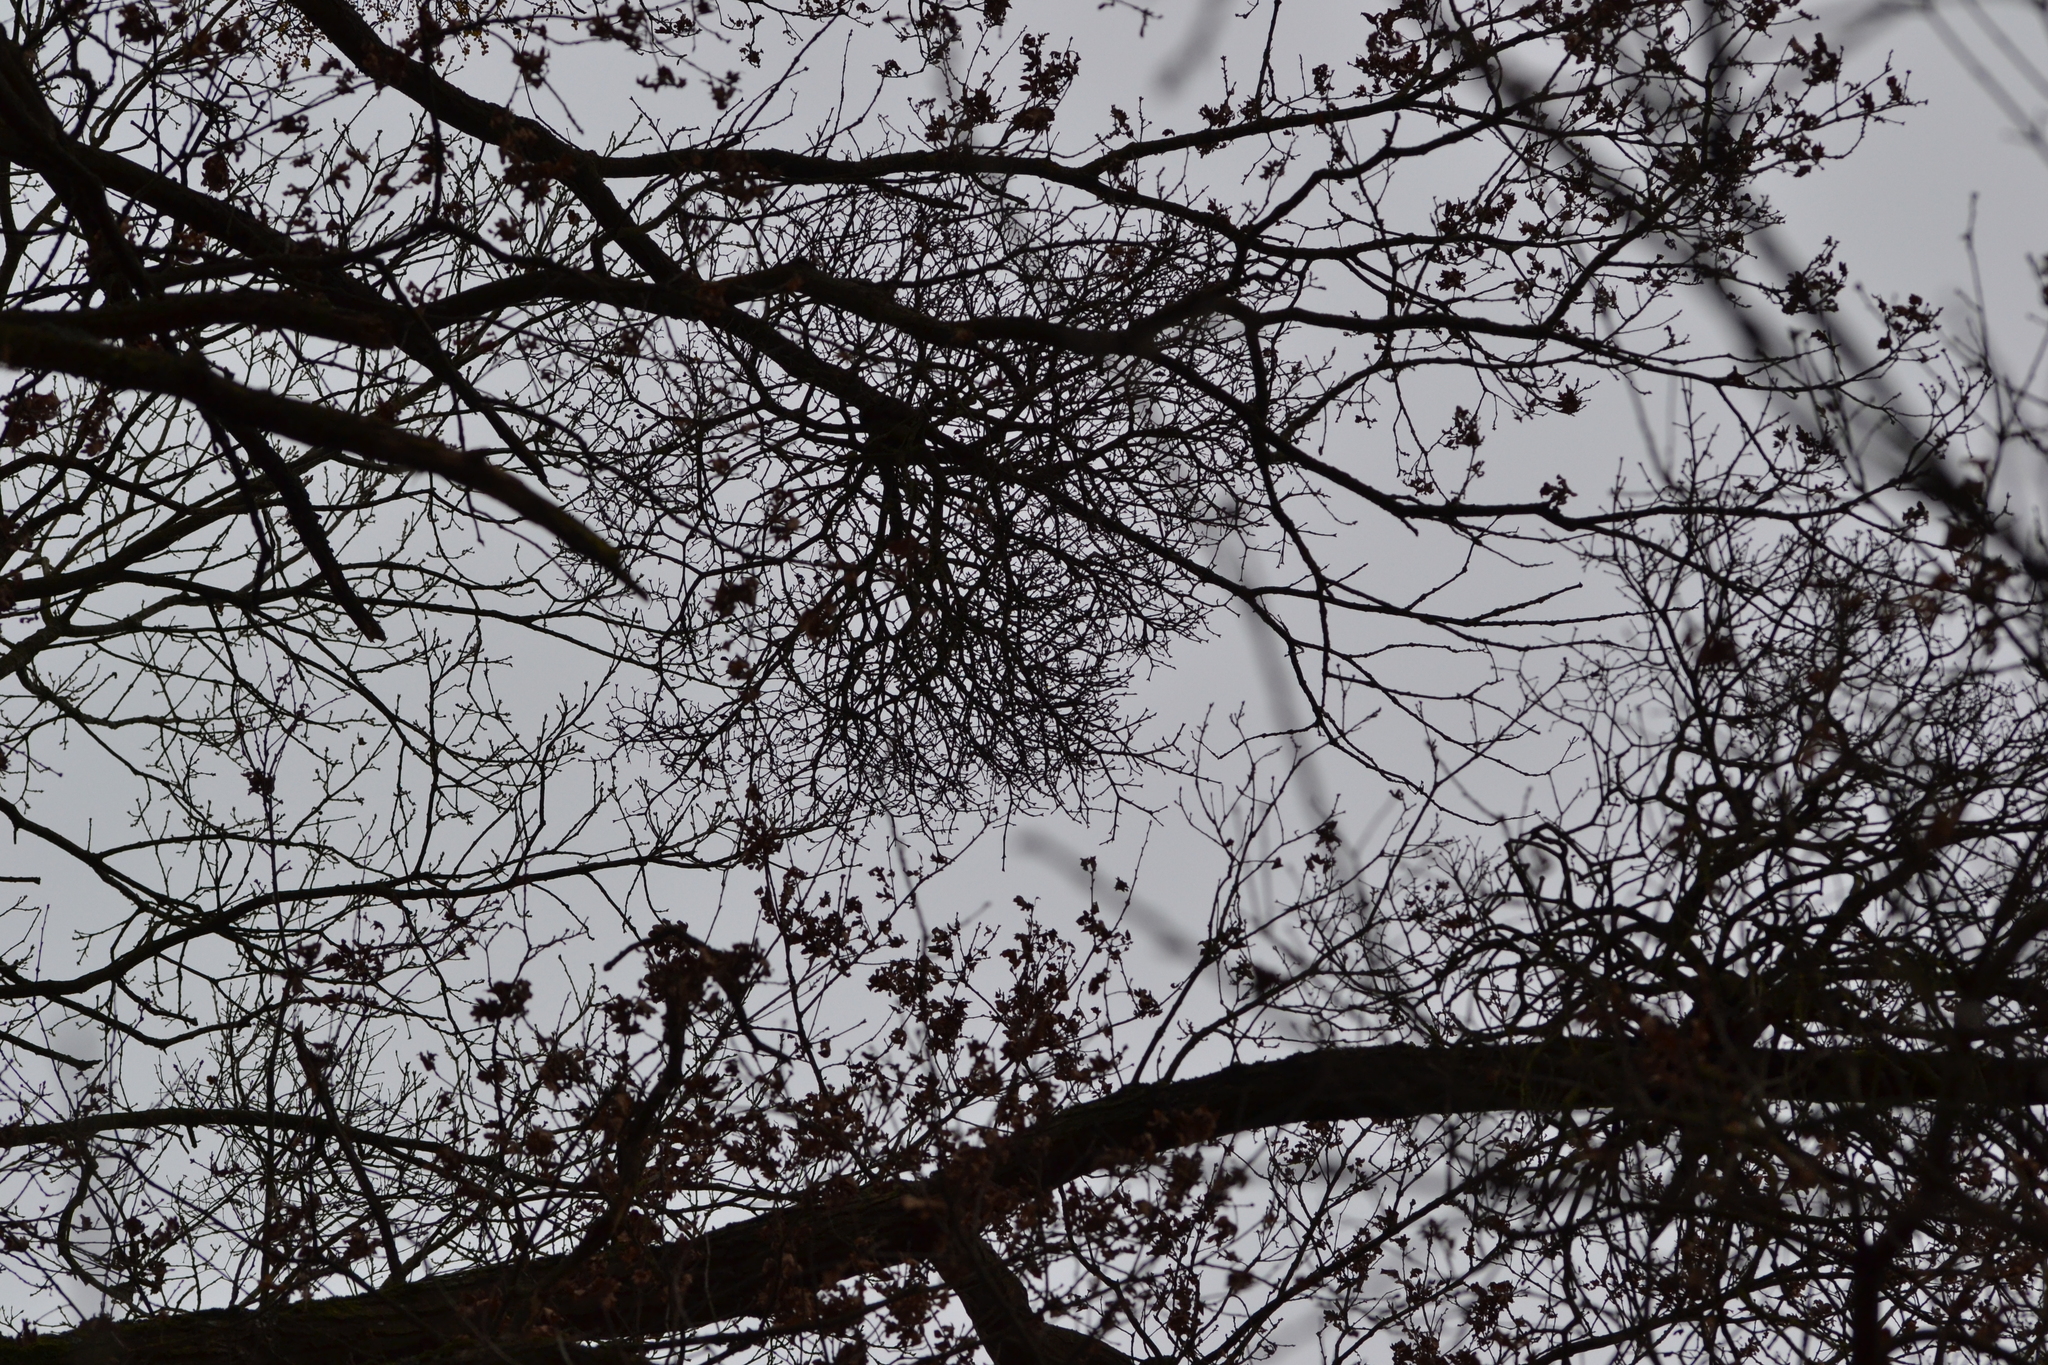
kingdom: Plantae
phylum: Tracheophyta
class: Magnoliopsida
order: Santalales
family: Loranthaceae
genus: Loranthus
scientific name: Loranthus europaeus
